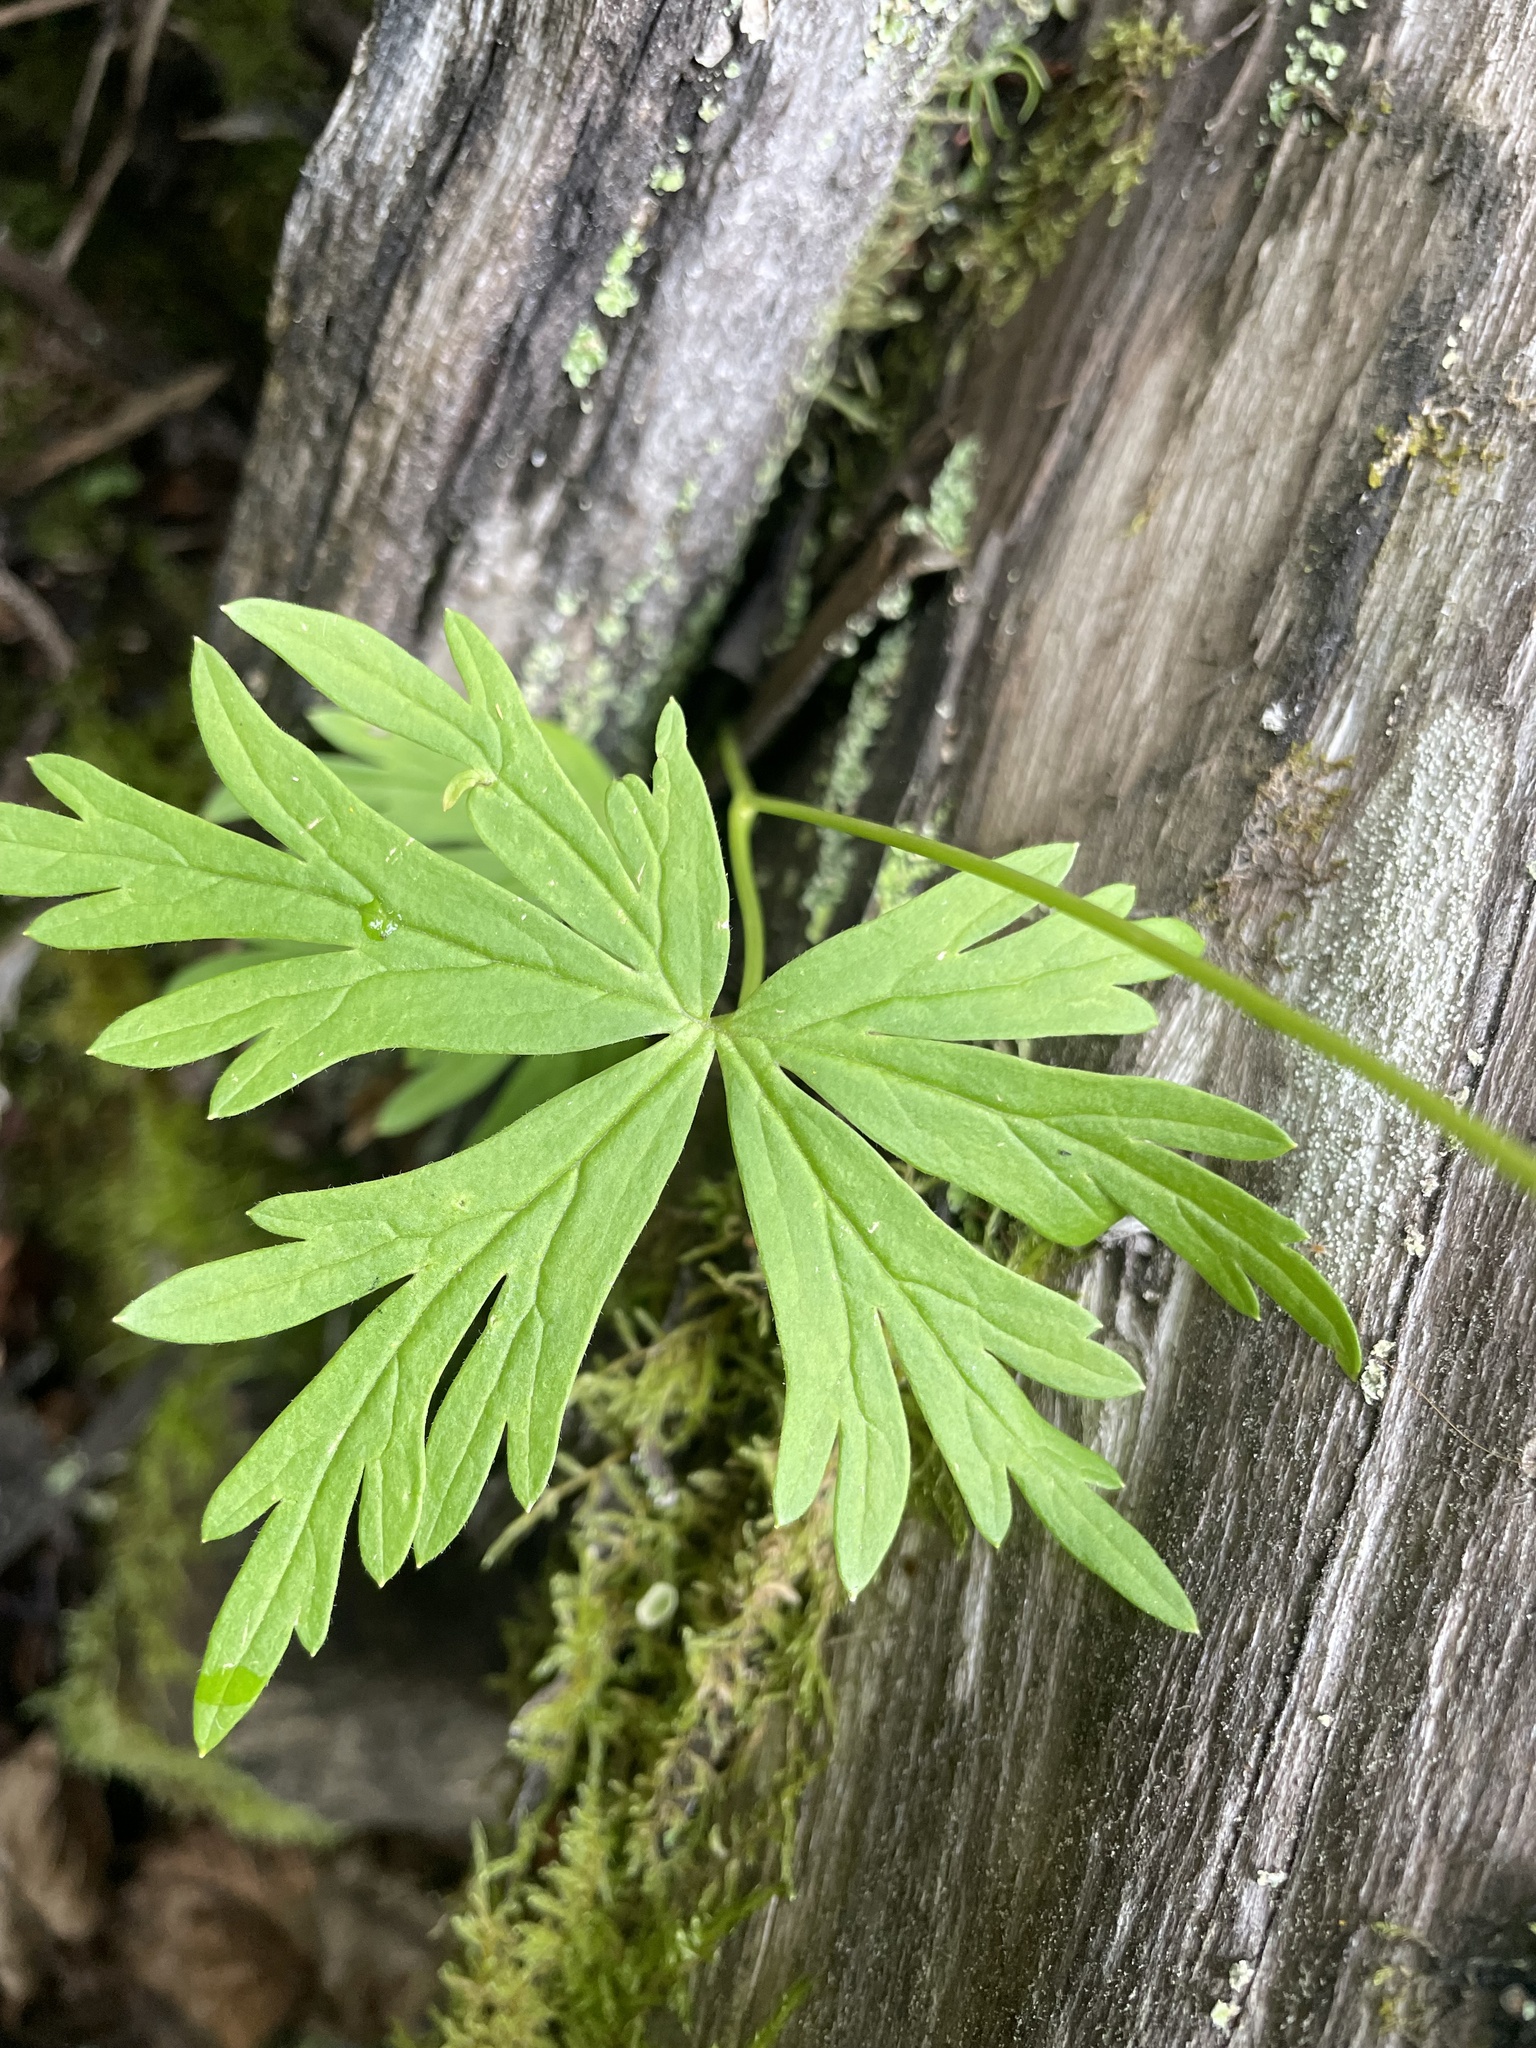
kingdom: Plantae
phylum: Tracheophyta
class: Magnoliopsida
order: Ranunculales
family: Ranunculaceae
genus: Aconitum
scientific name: Aconitum delphiniifolium
